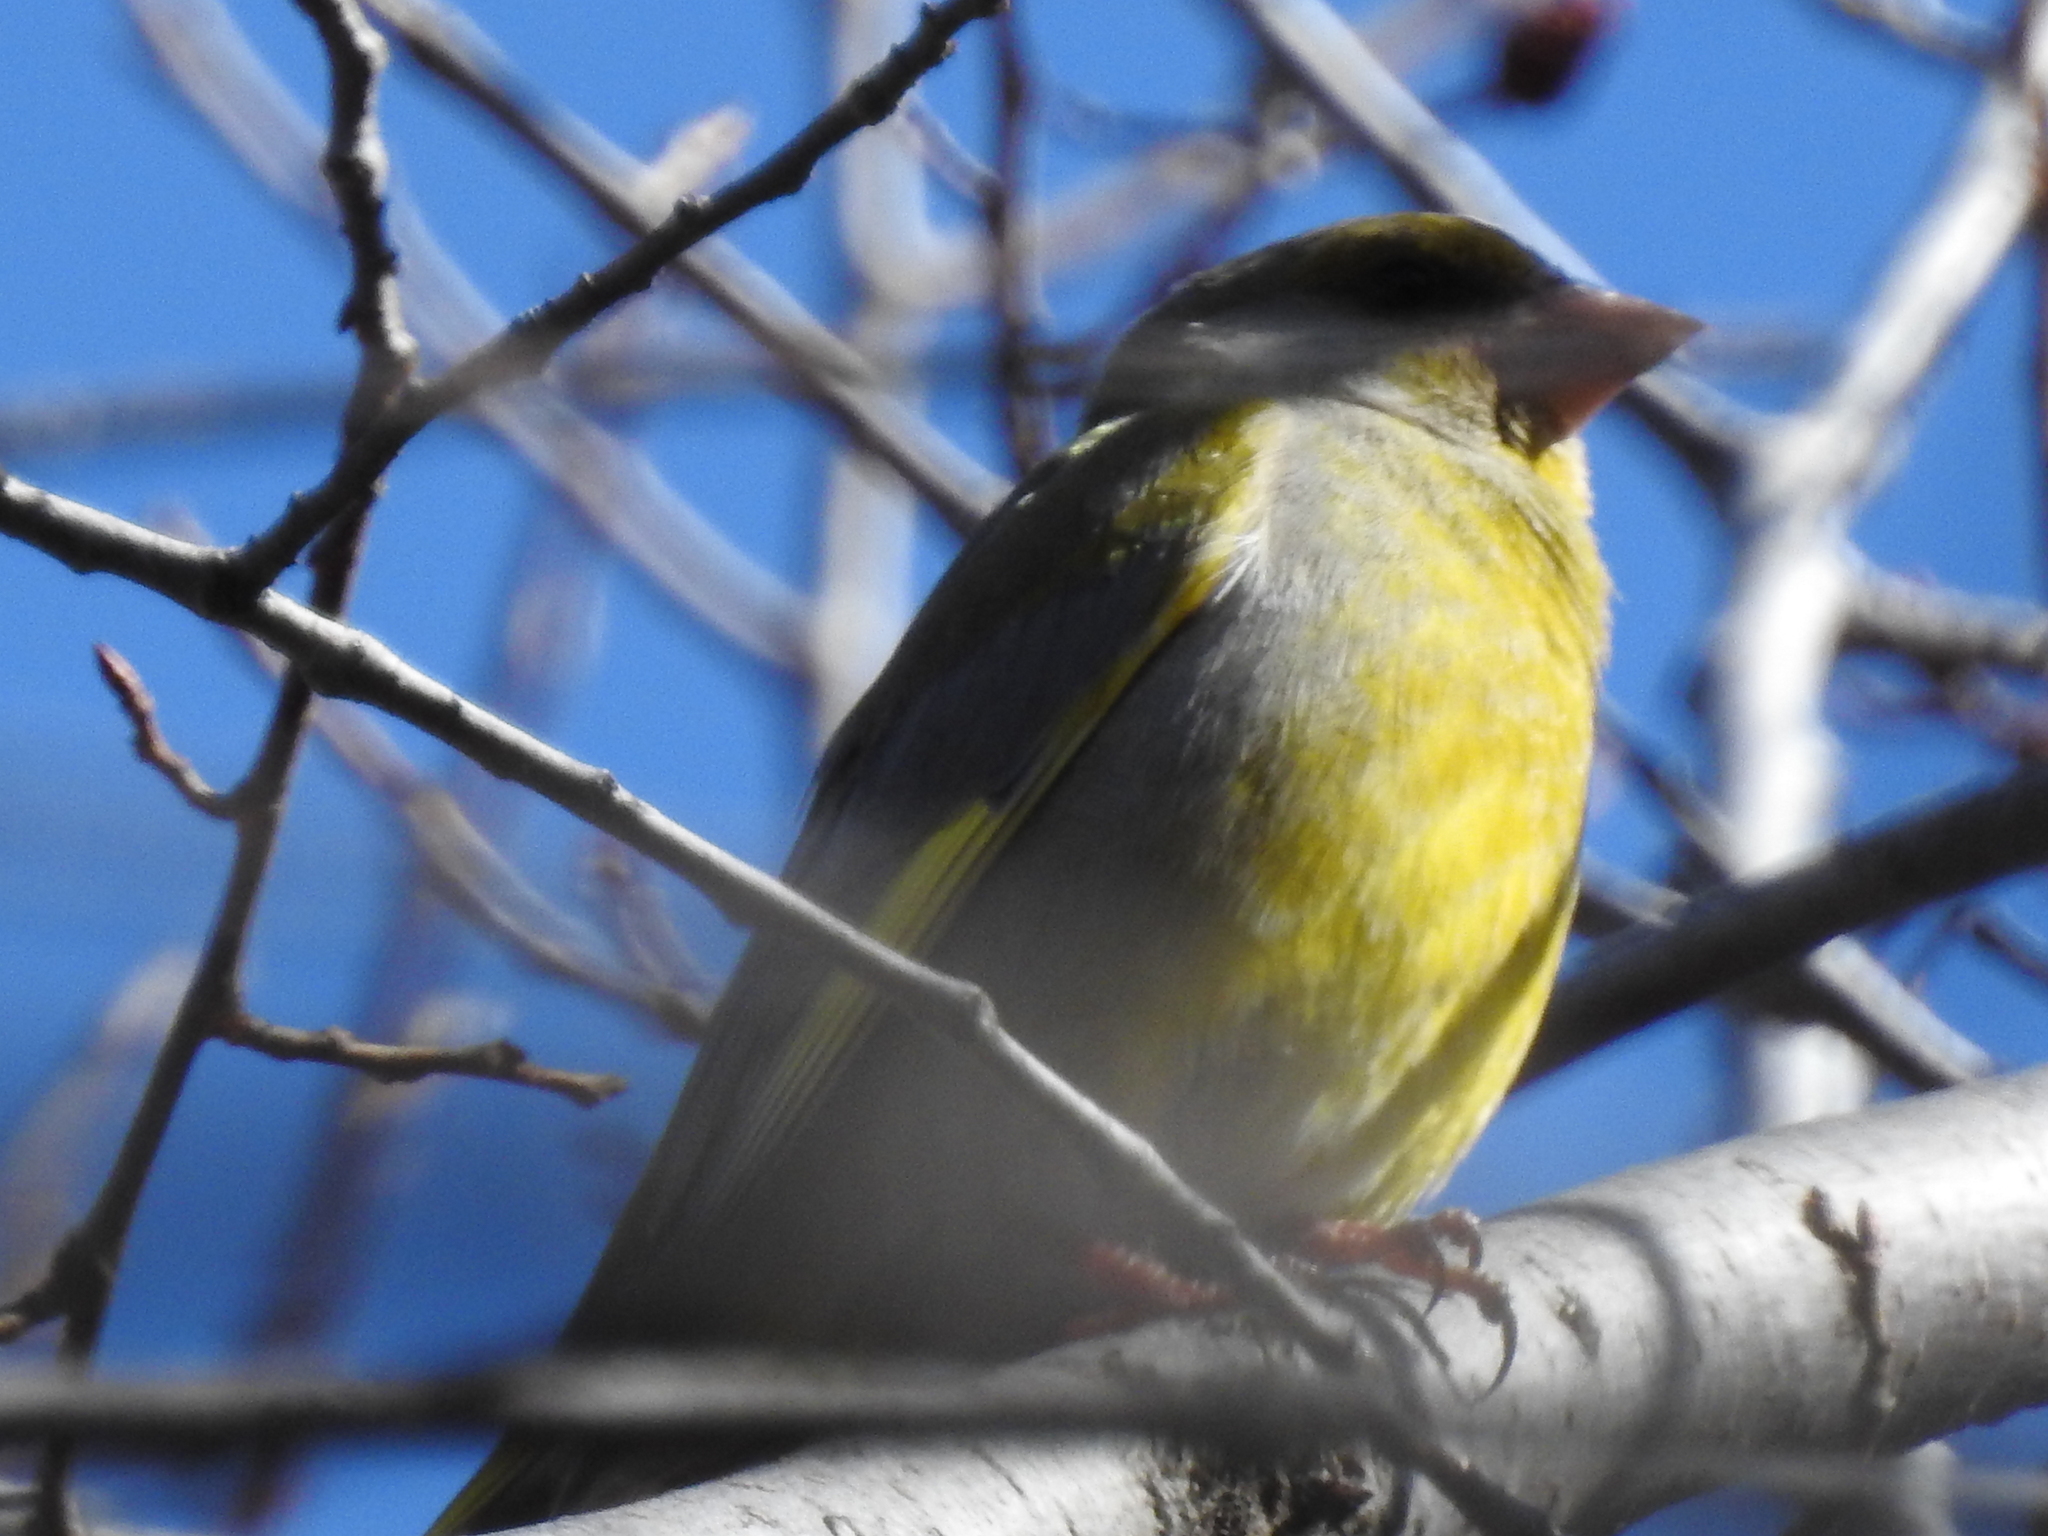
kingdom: Plantae
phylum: Tracheophyta
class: Liliopsida
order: Poales
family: Poaceae
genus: Chloris
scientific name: Chloris chloris
